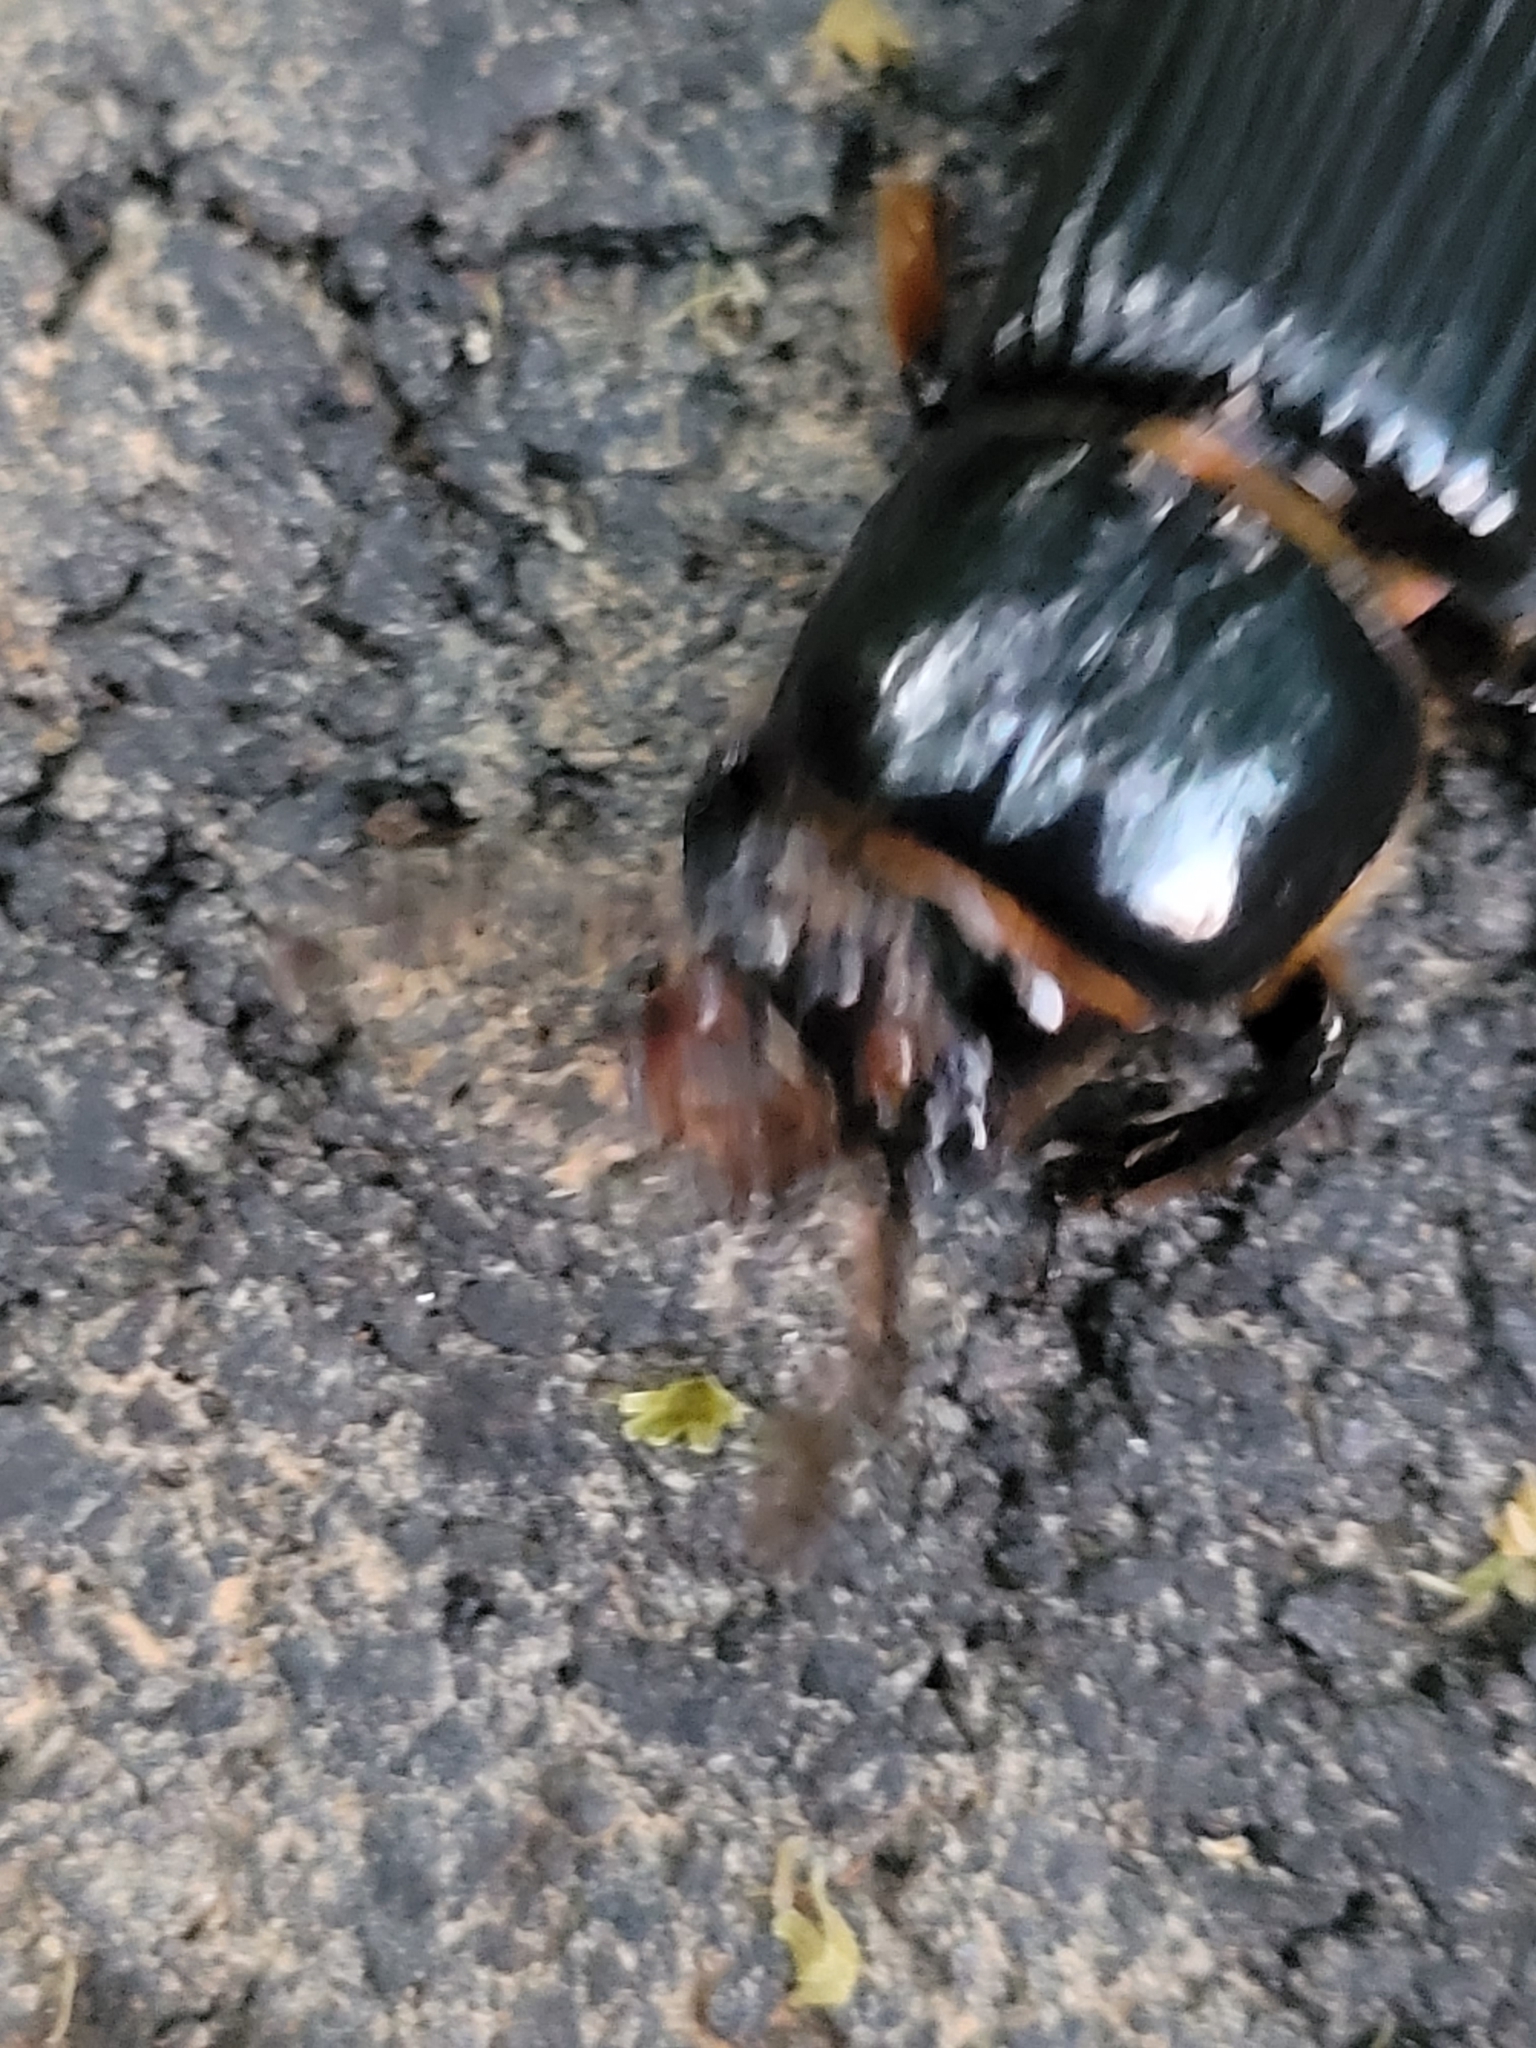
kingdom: Animalia
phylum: Arthropoda
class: Insecta
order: Coleoptera
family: Passalidae
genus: Odontotaenius
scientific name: Odontotaenius disjunctus
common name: Patent leather beetle
